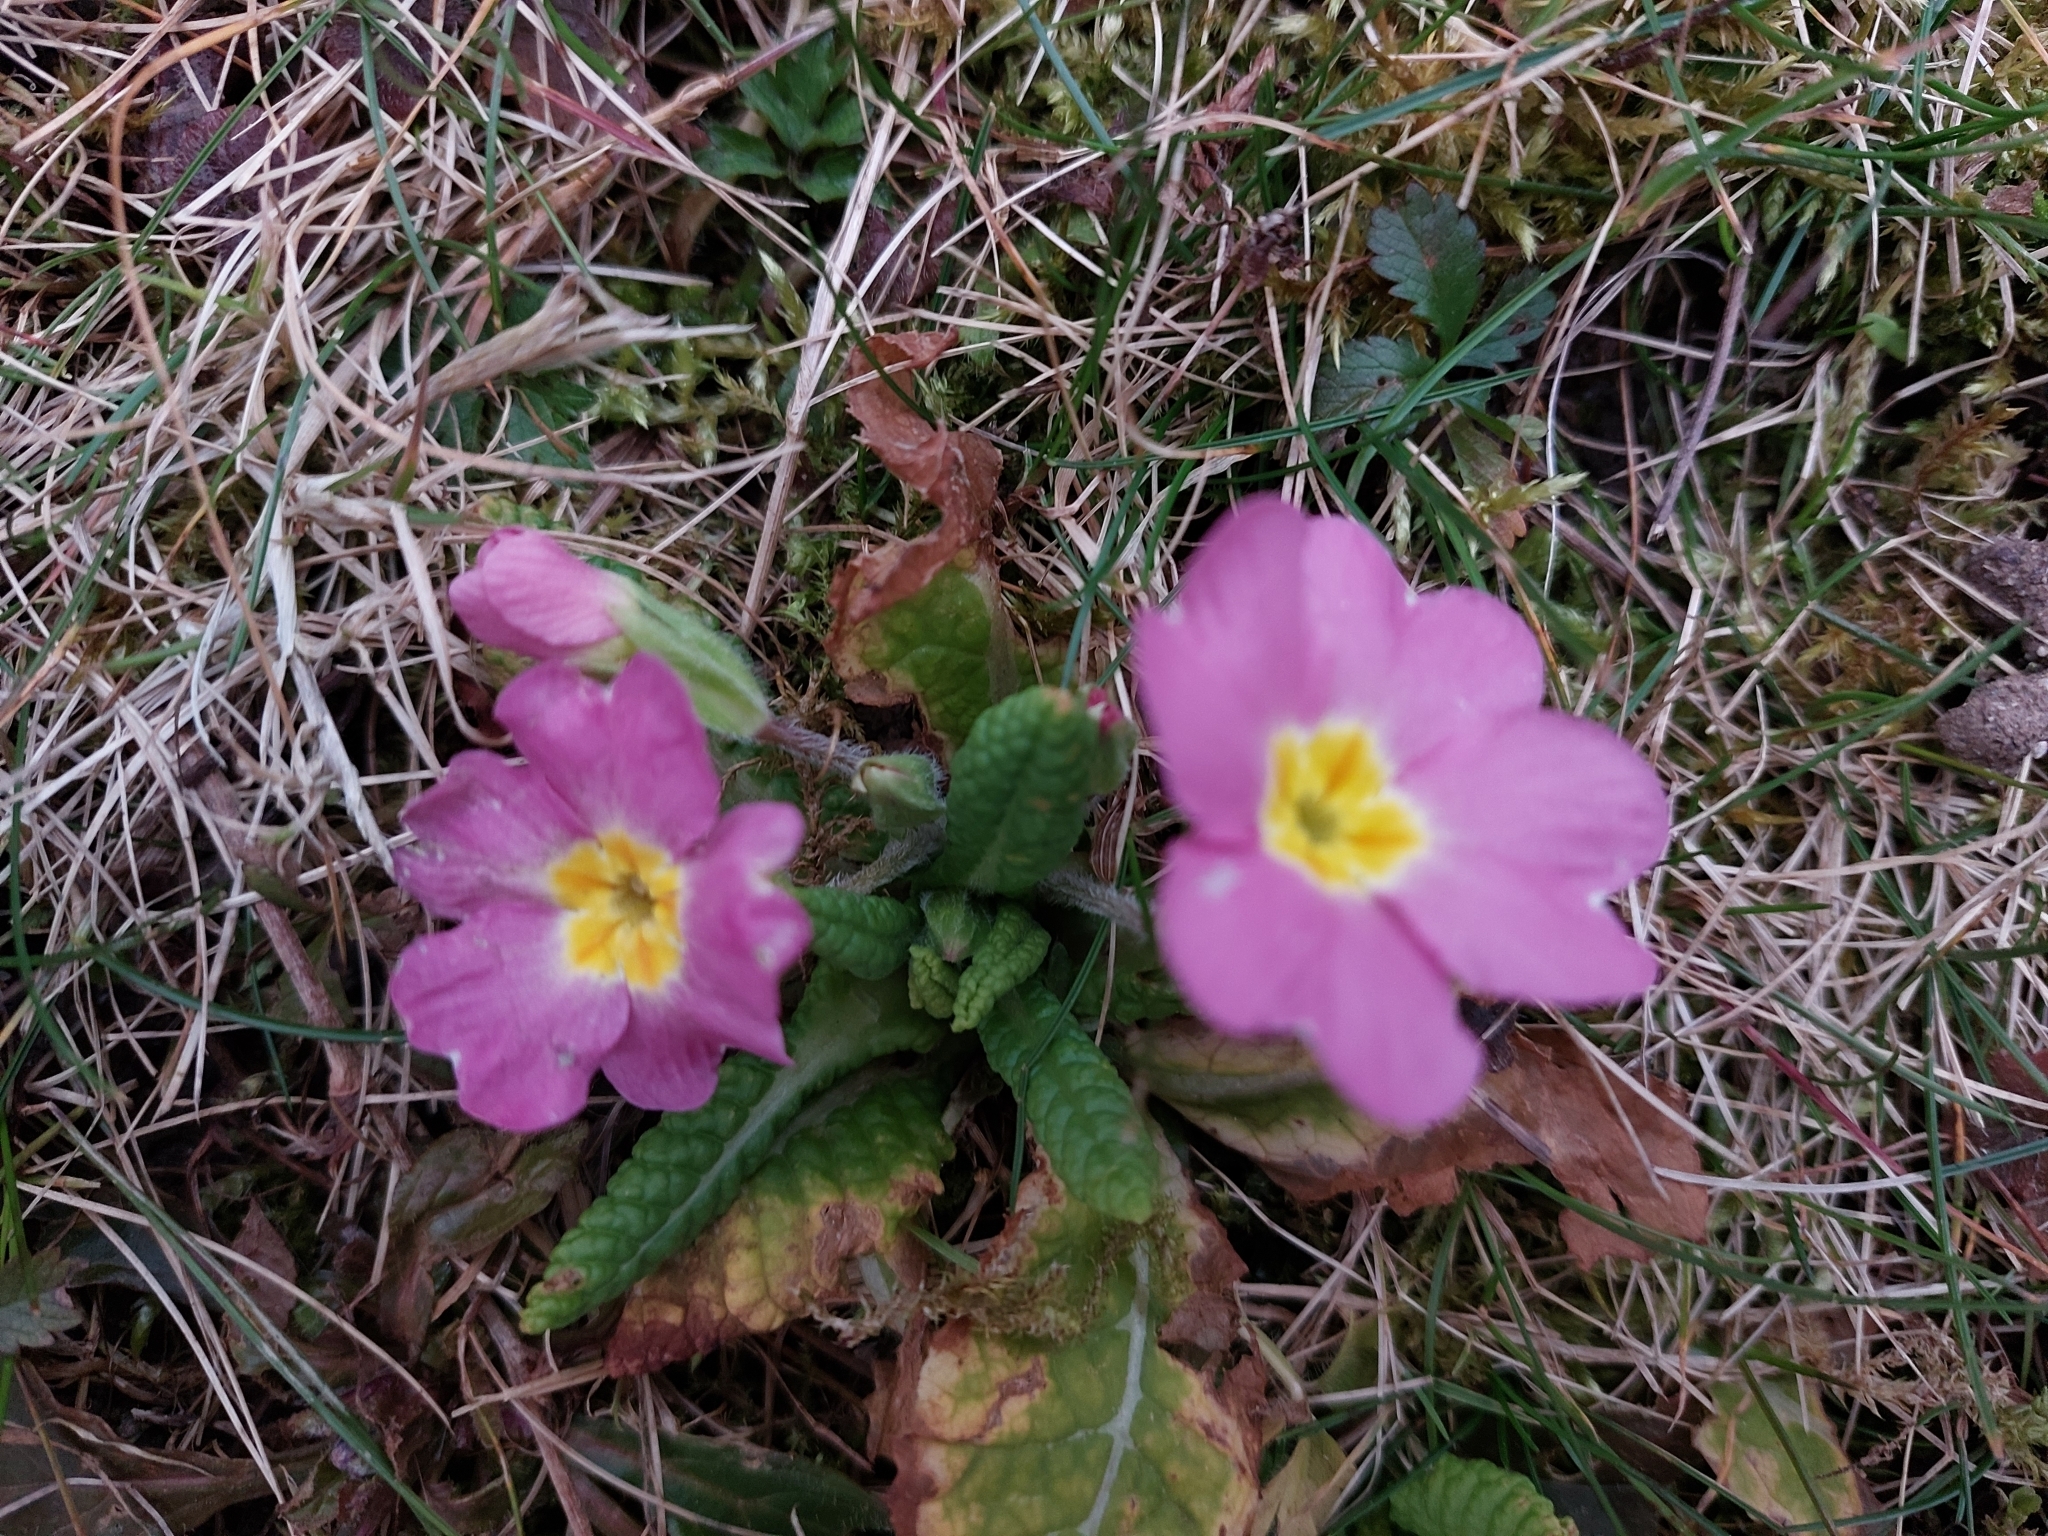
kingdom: Plantae
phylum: Tracheophyta
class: Magnoliopsida
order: Ericales
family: Primulaceae
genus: Primula
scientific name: Primula vulgaris
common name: Primrose
